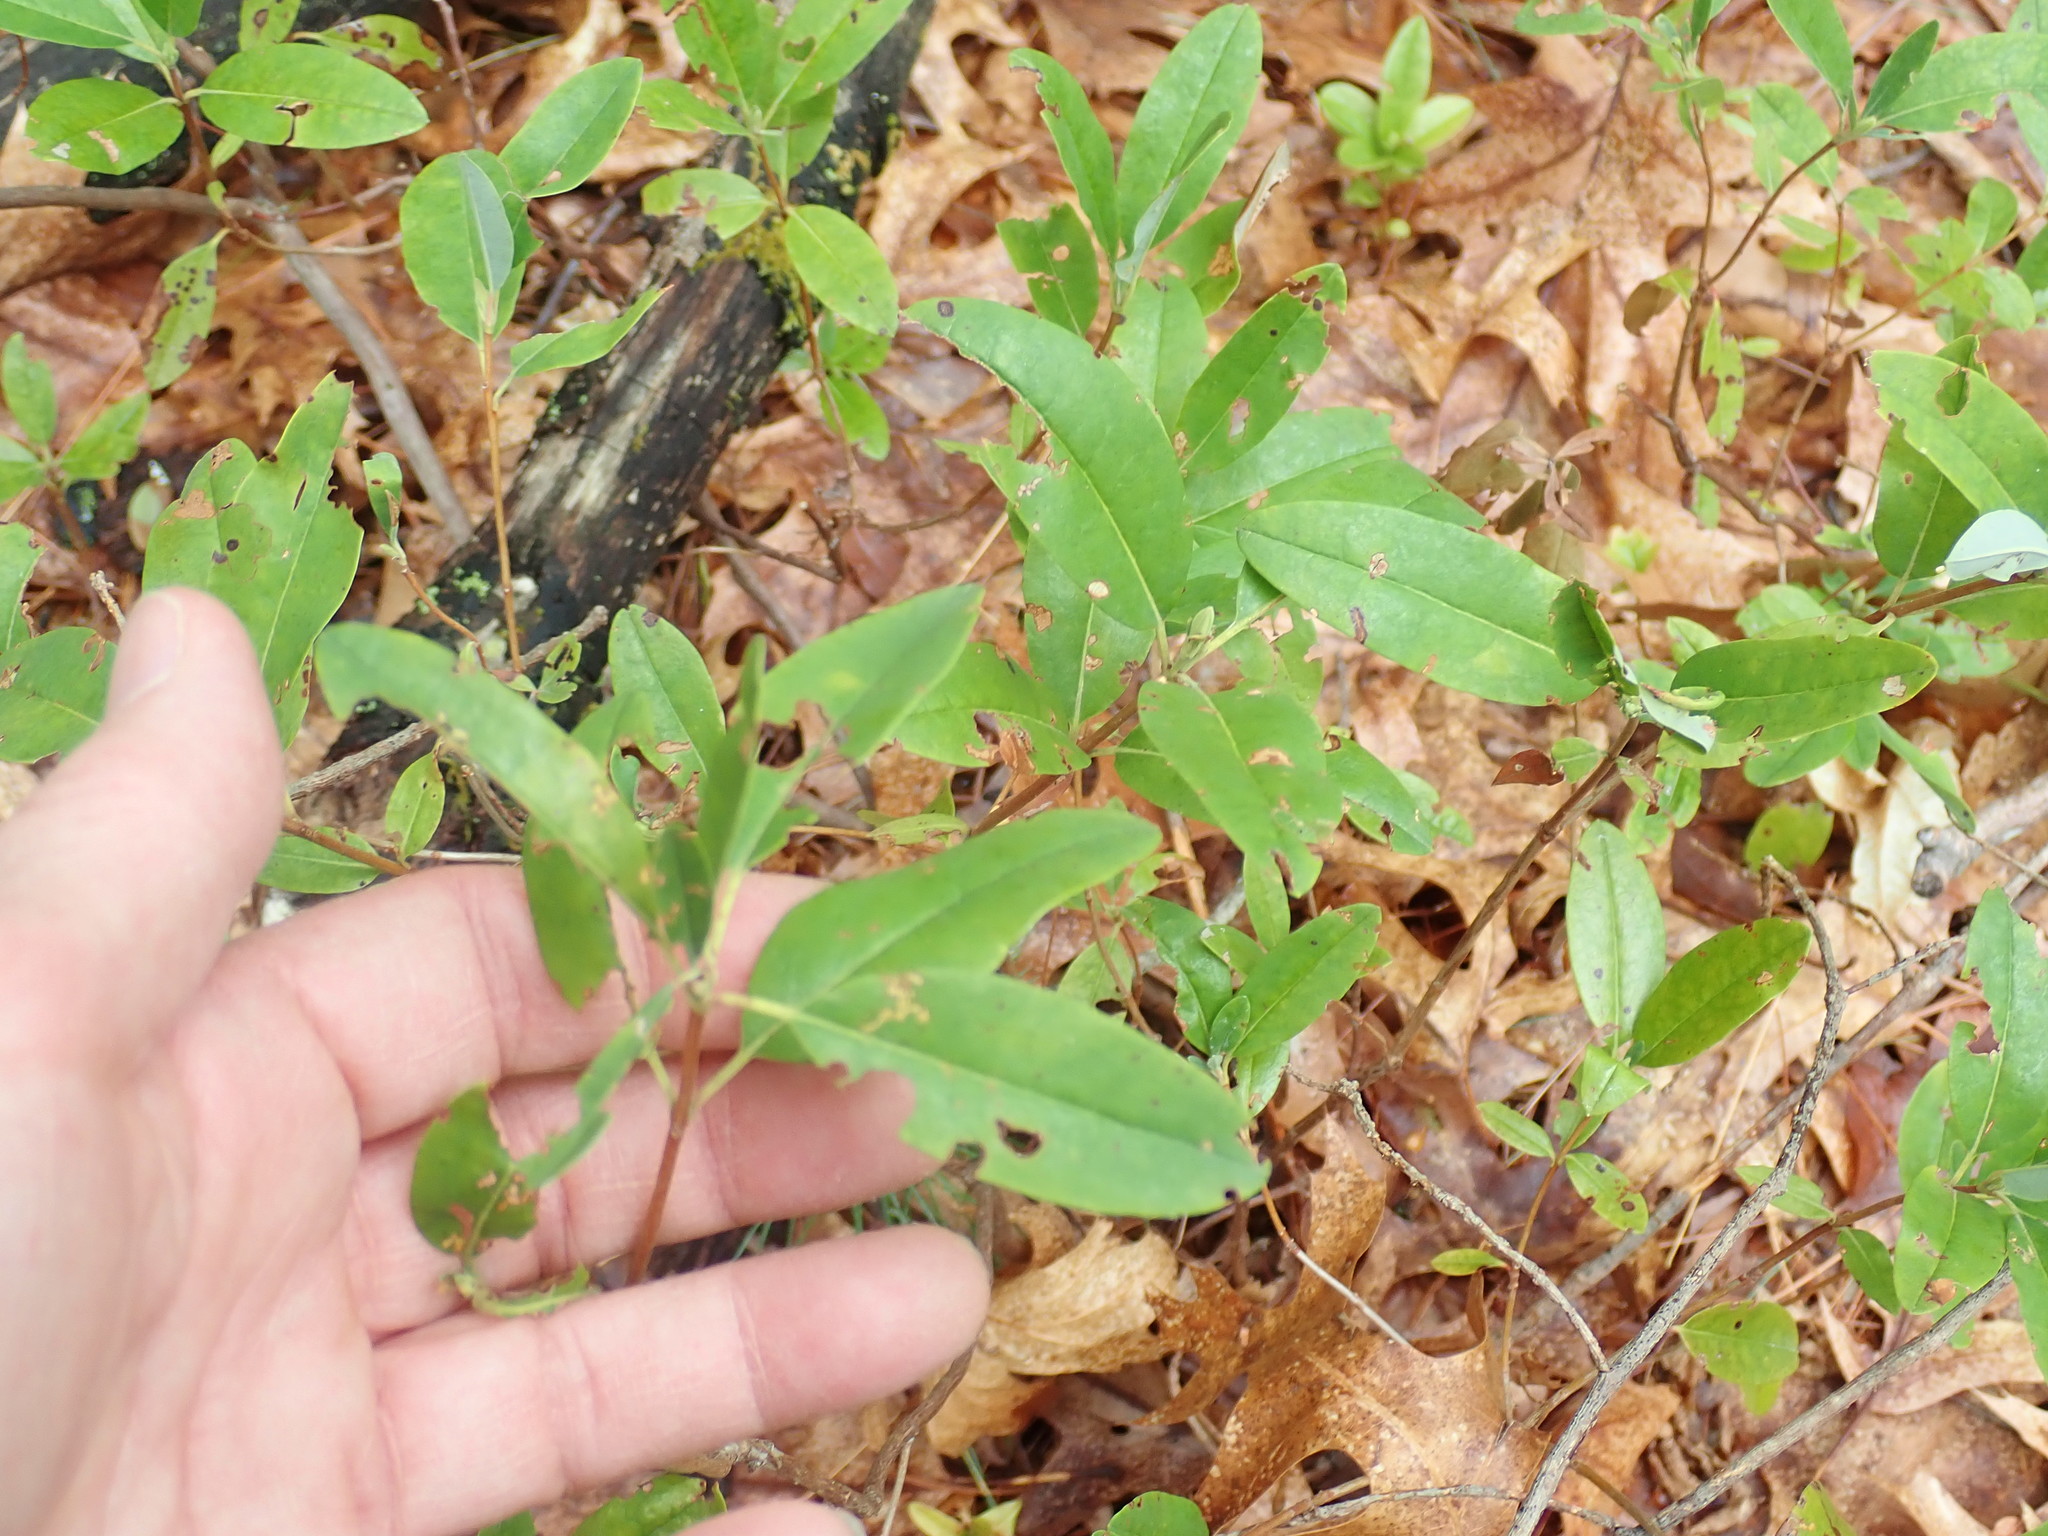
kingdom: Plantae
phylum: Tracheophyta
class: Magnoliopsida
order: Ericales
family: Ericaceae
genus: Kalmia
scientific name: Kalmia angustifolia
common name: Sheep-laurel
